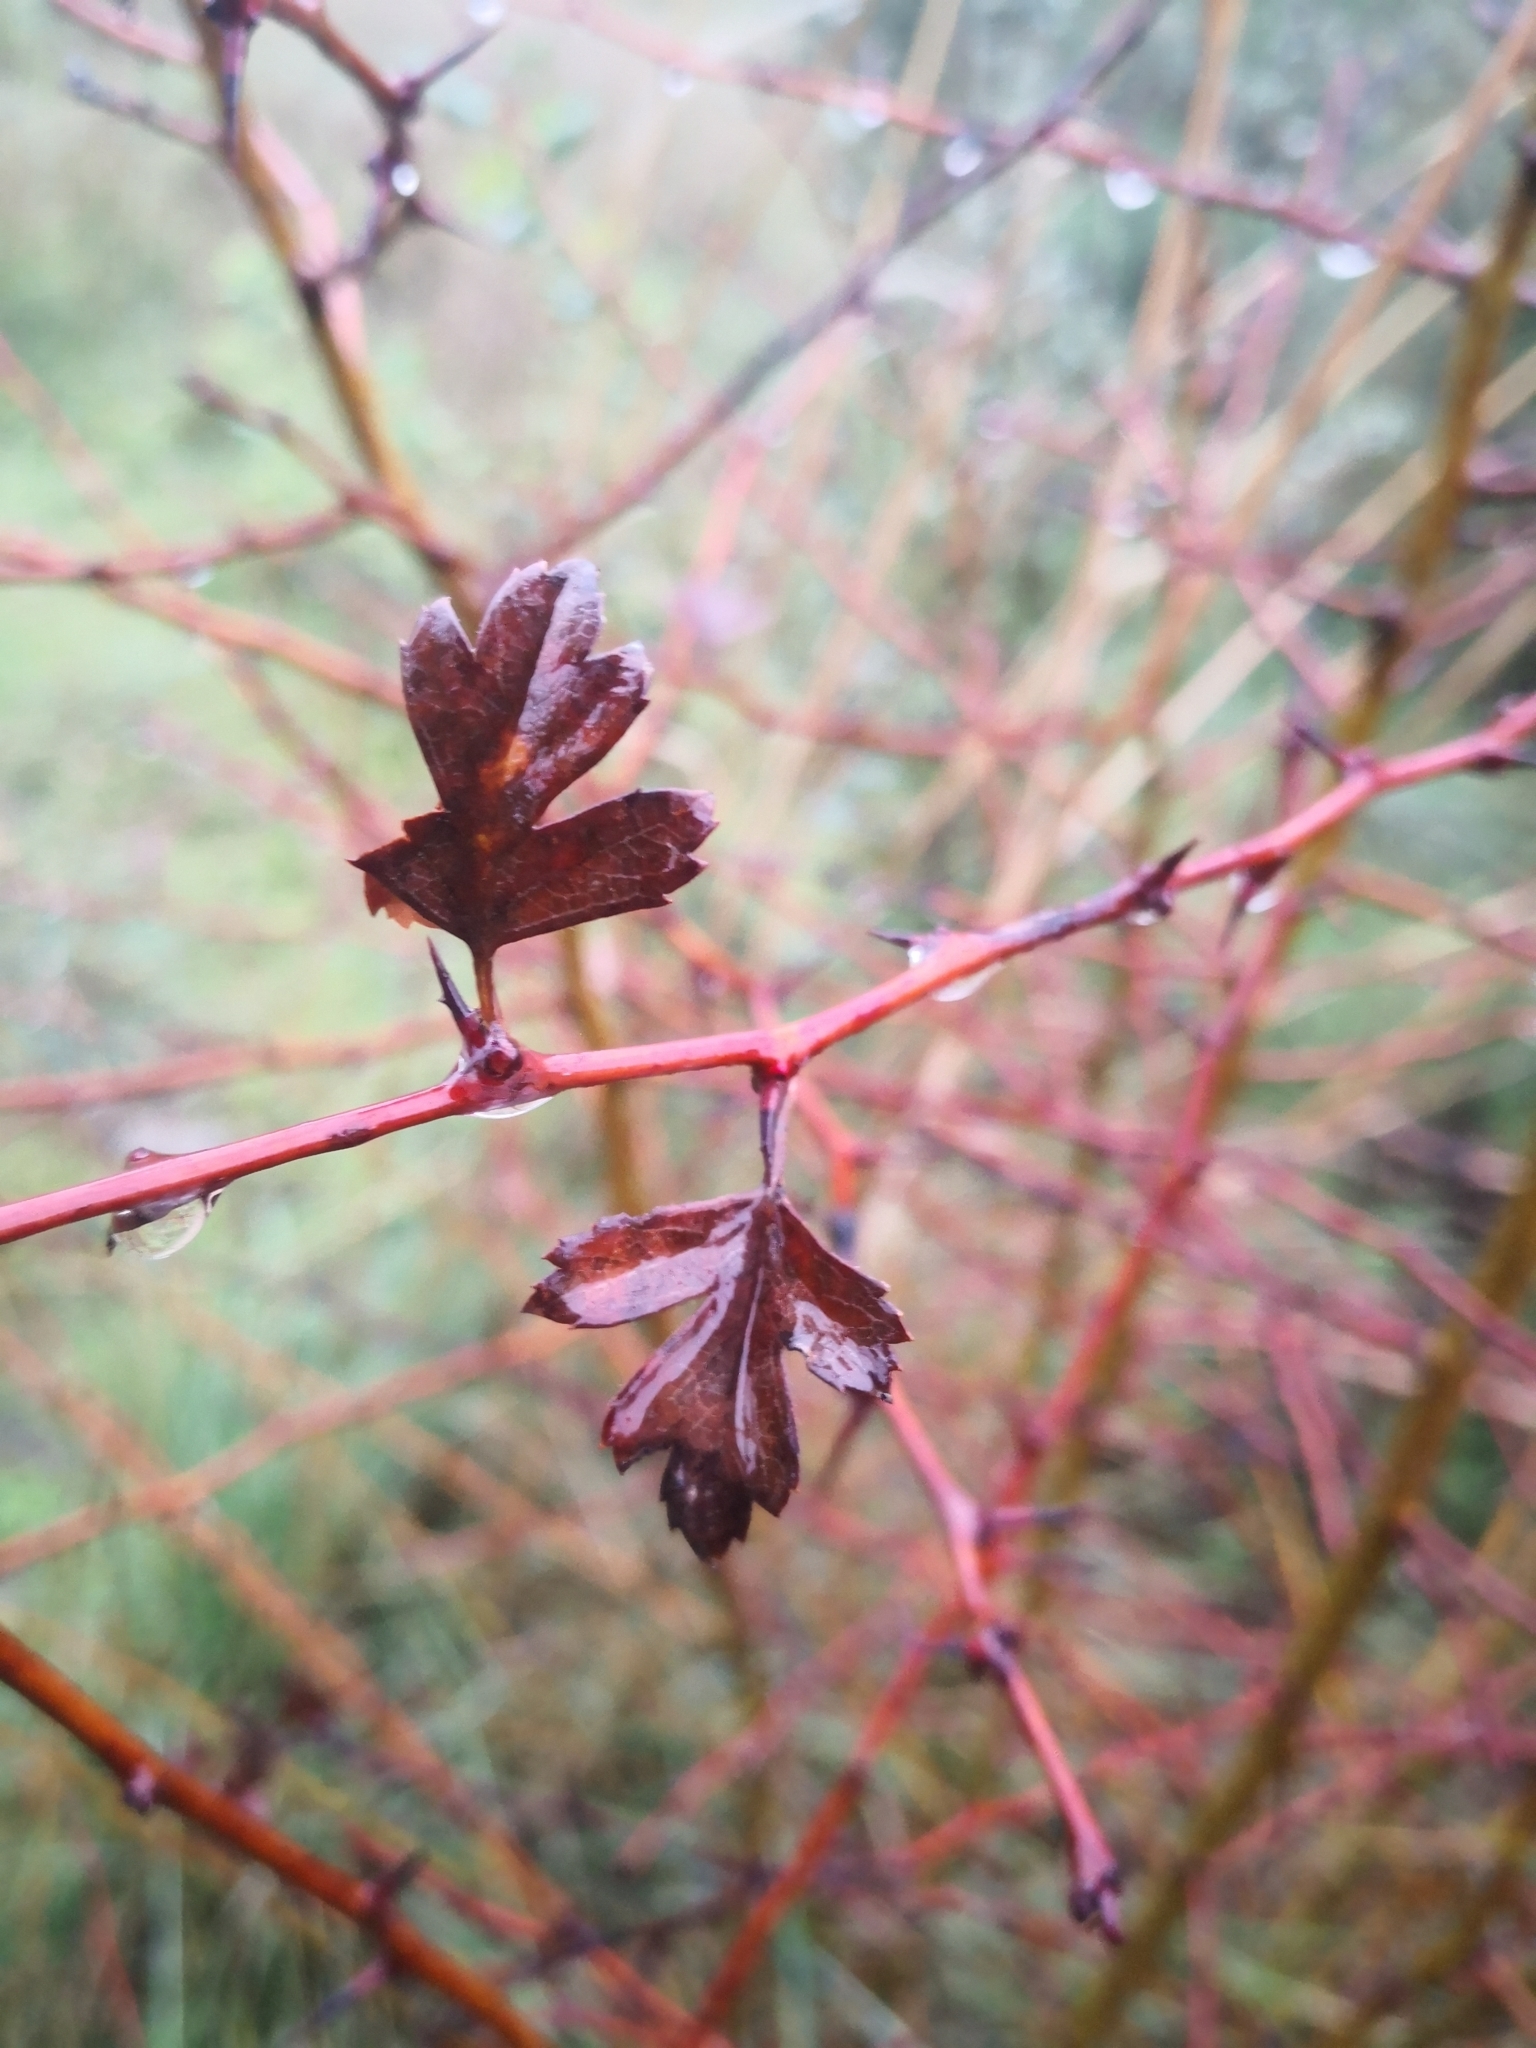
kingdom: Plantae
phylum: Tracheophyta
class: Magnoliopsida
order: Rosales
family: Rosaceae
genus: Crataegus
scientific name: Crataegus monogyna
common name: Hawthorn
